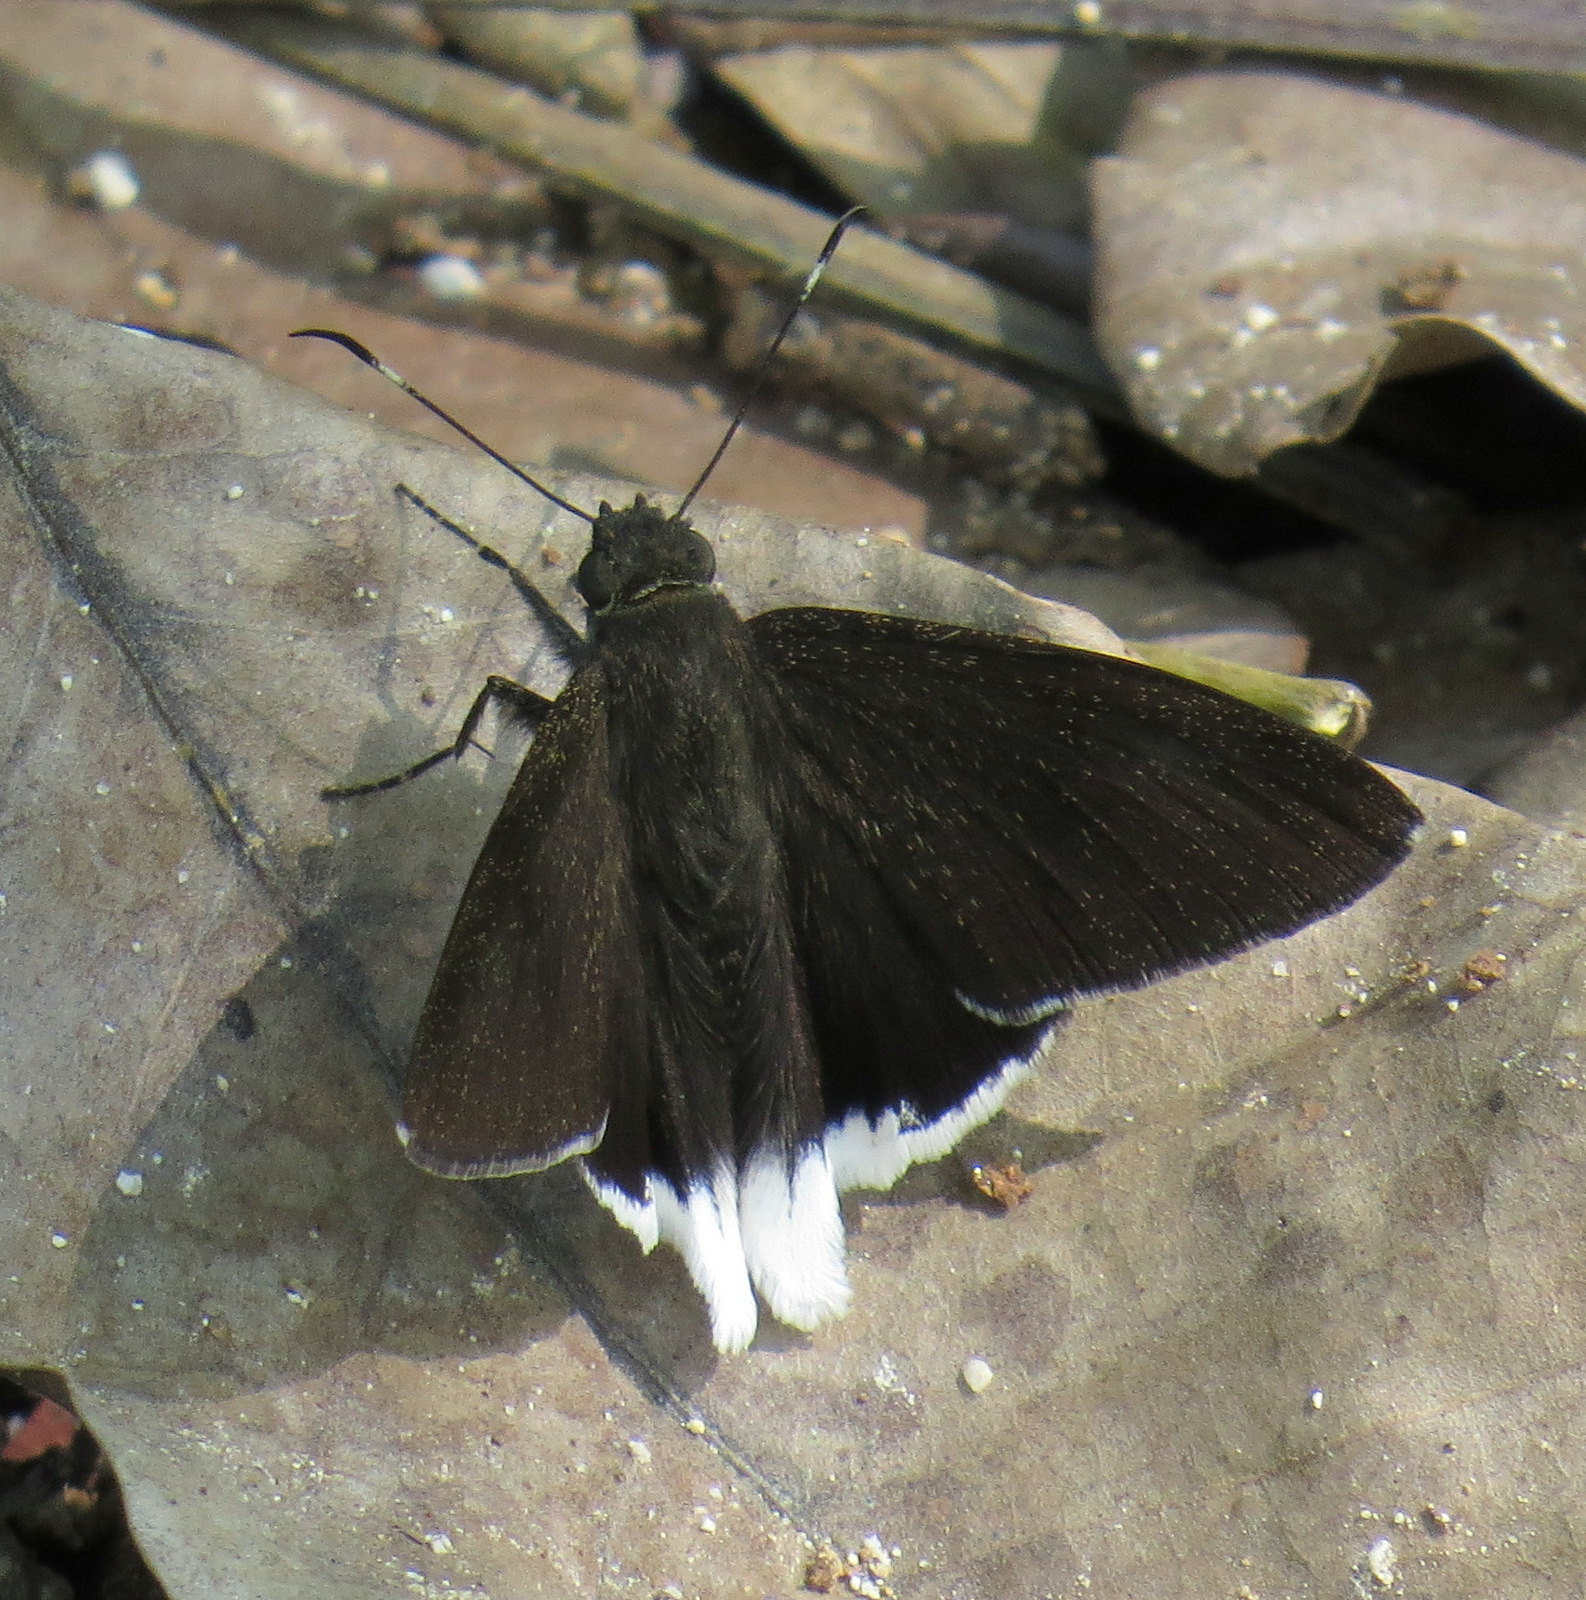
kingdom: Animalia
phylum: Arthropoda
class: Insecta
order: Lepidoptera
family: Hesperiidae
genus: Achalarus
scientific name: Achalarus
